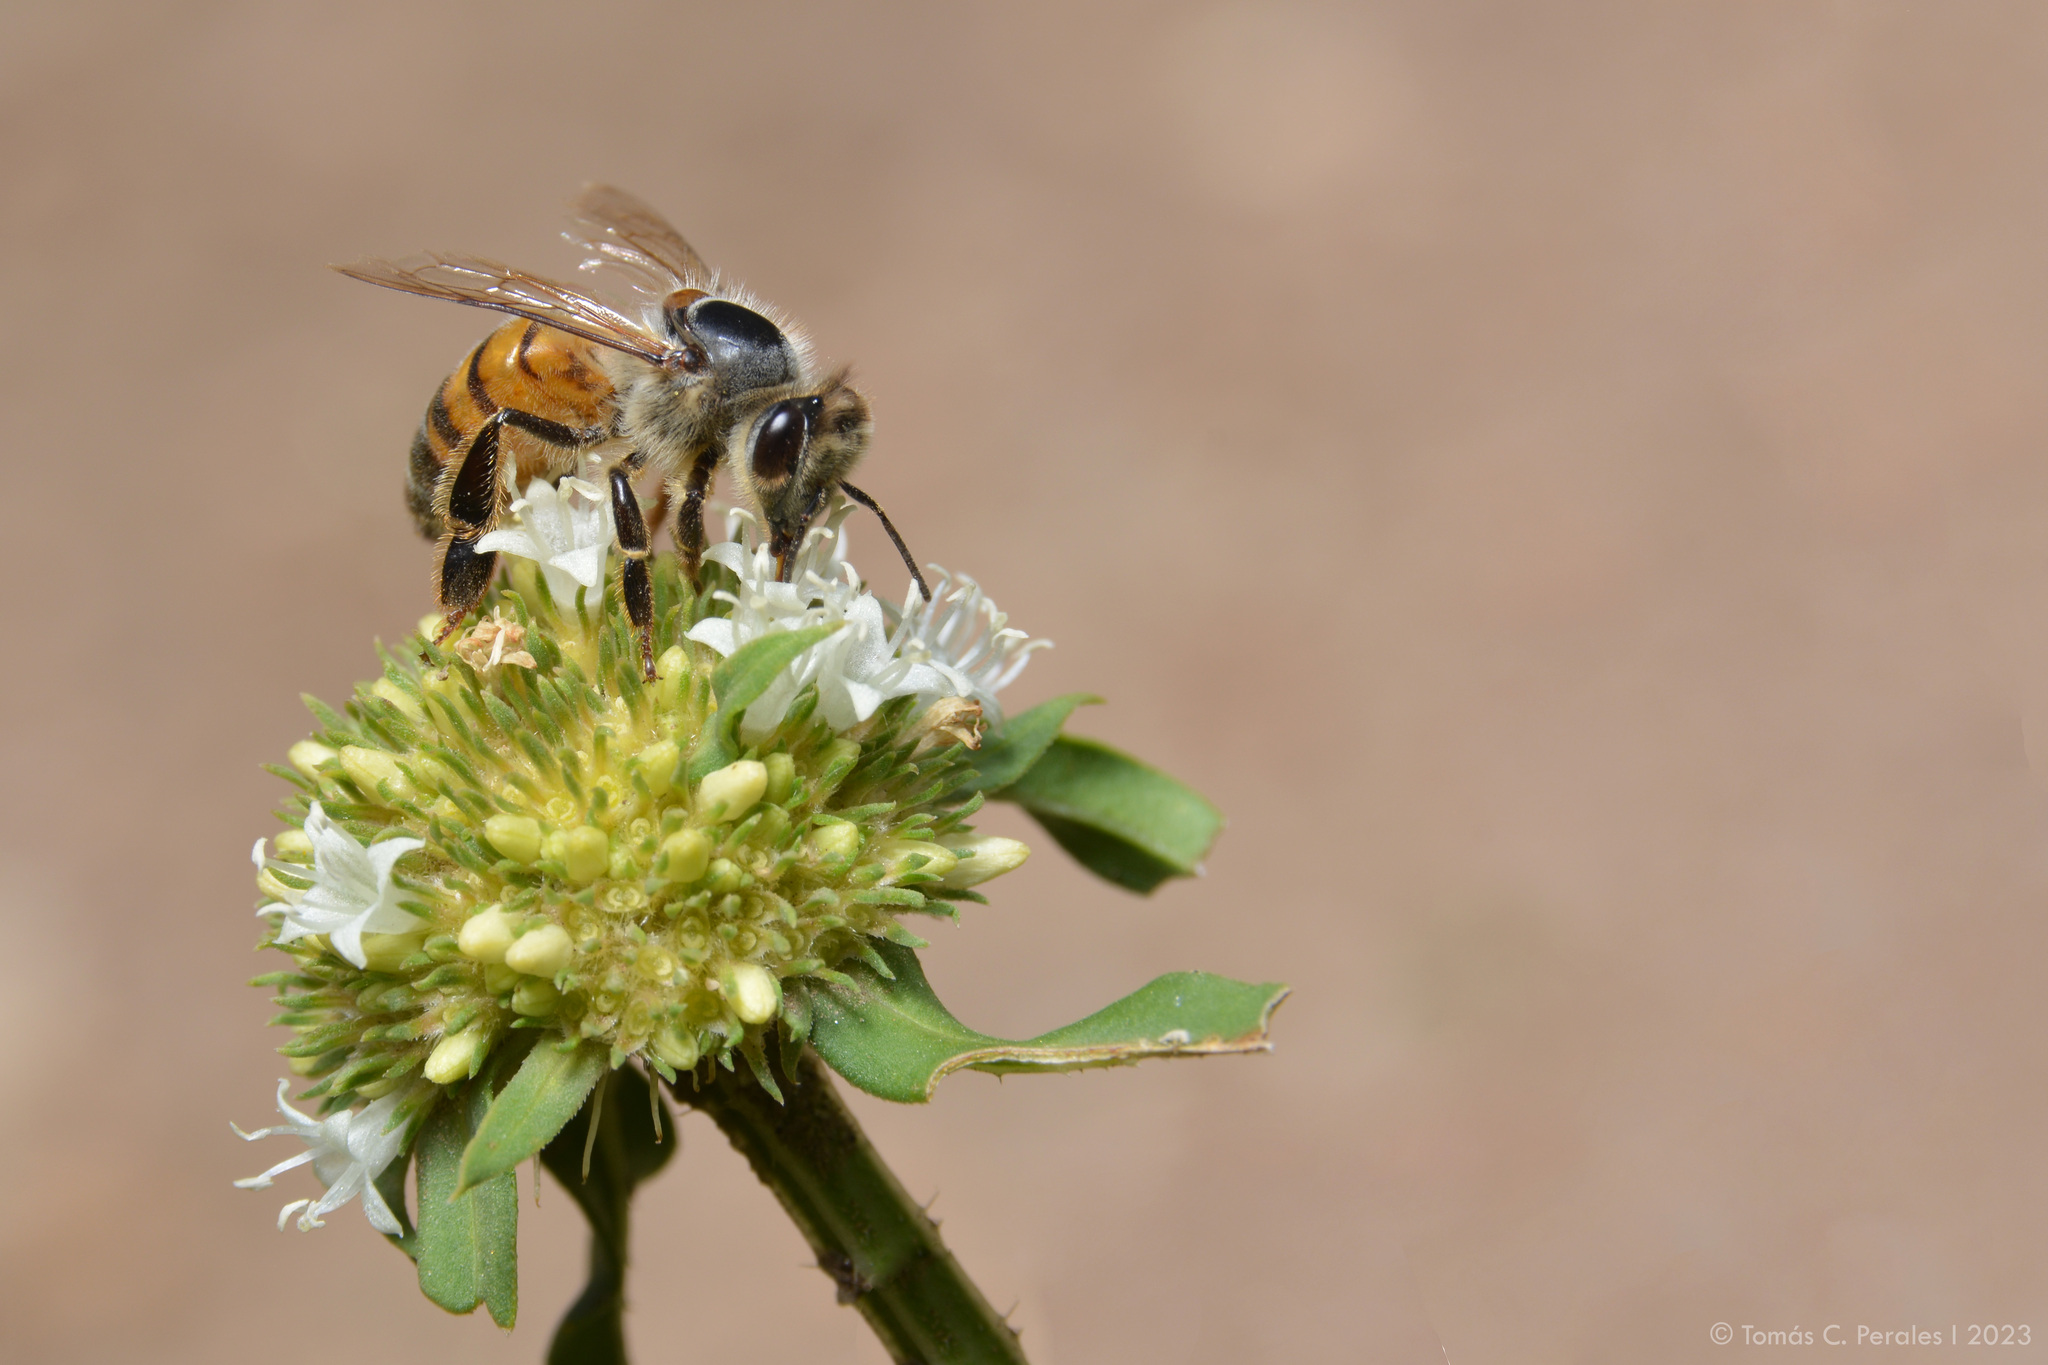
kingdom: Animalia
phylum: Arthropoda
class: Insecta
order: Hymenoptera
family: Apidae
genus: Apis
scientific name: Apis mellifera
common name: Honey bee
